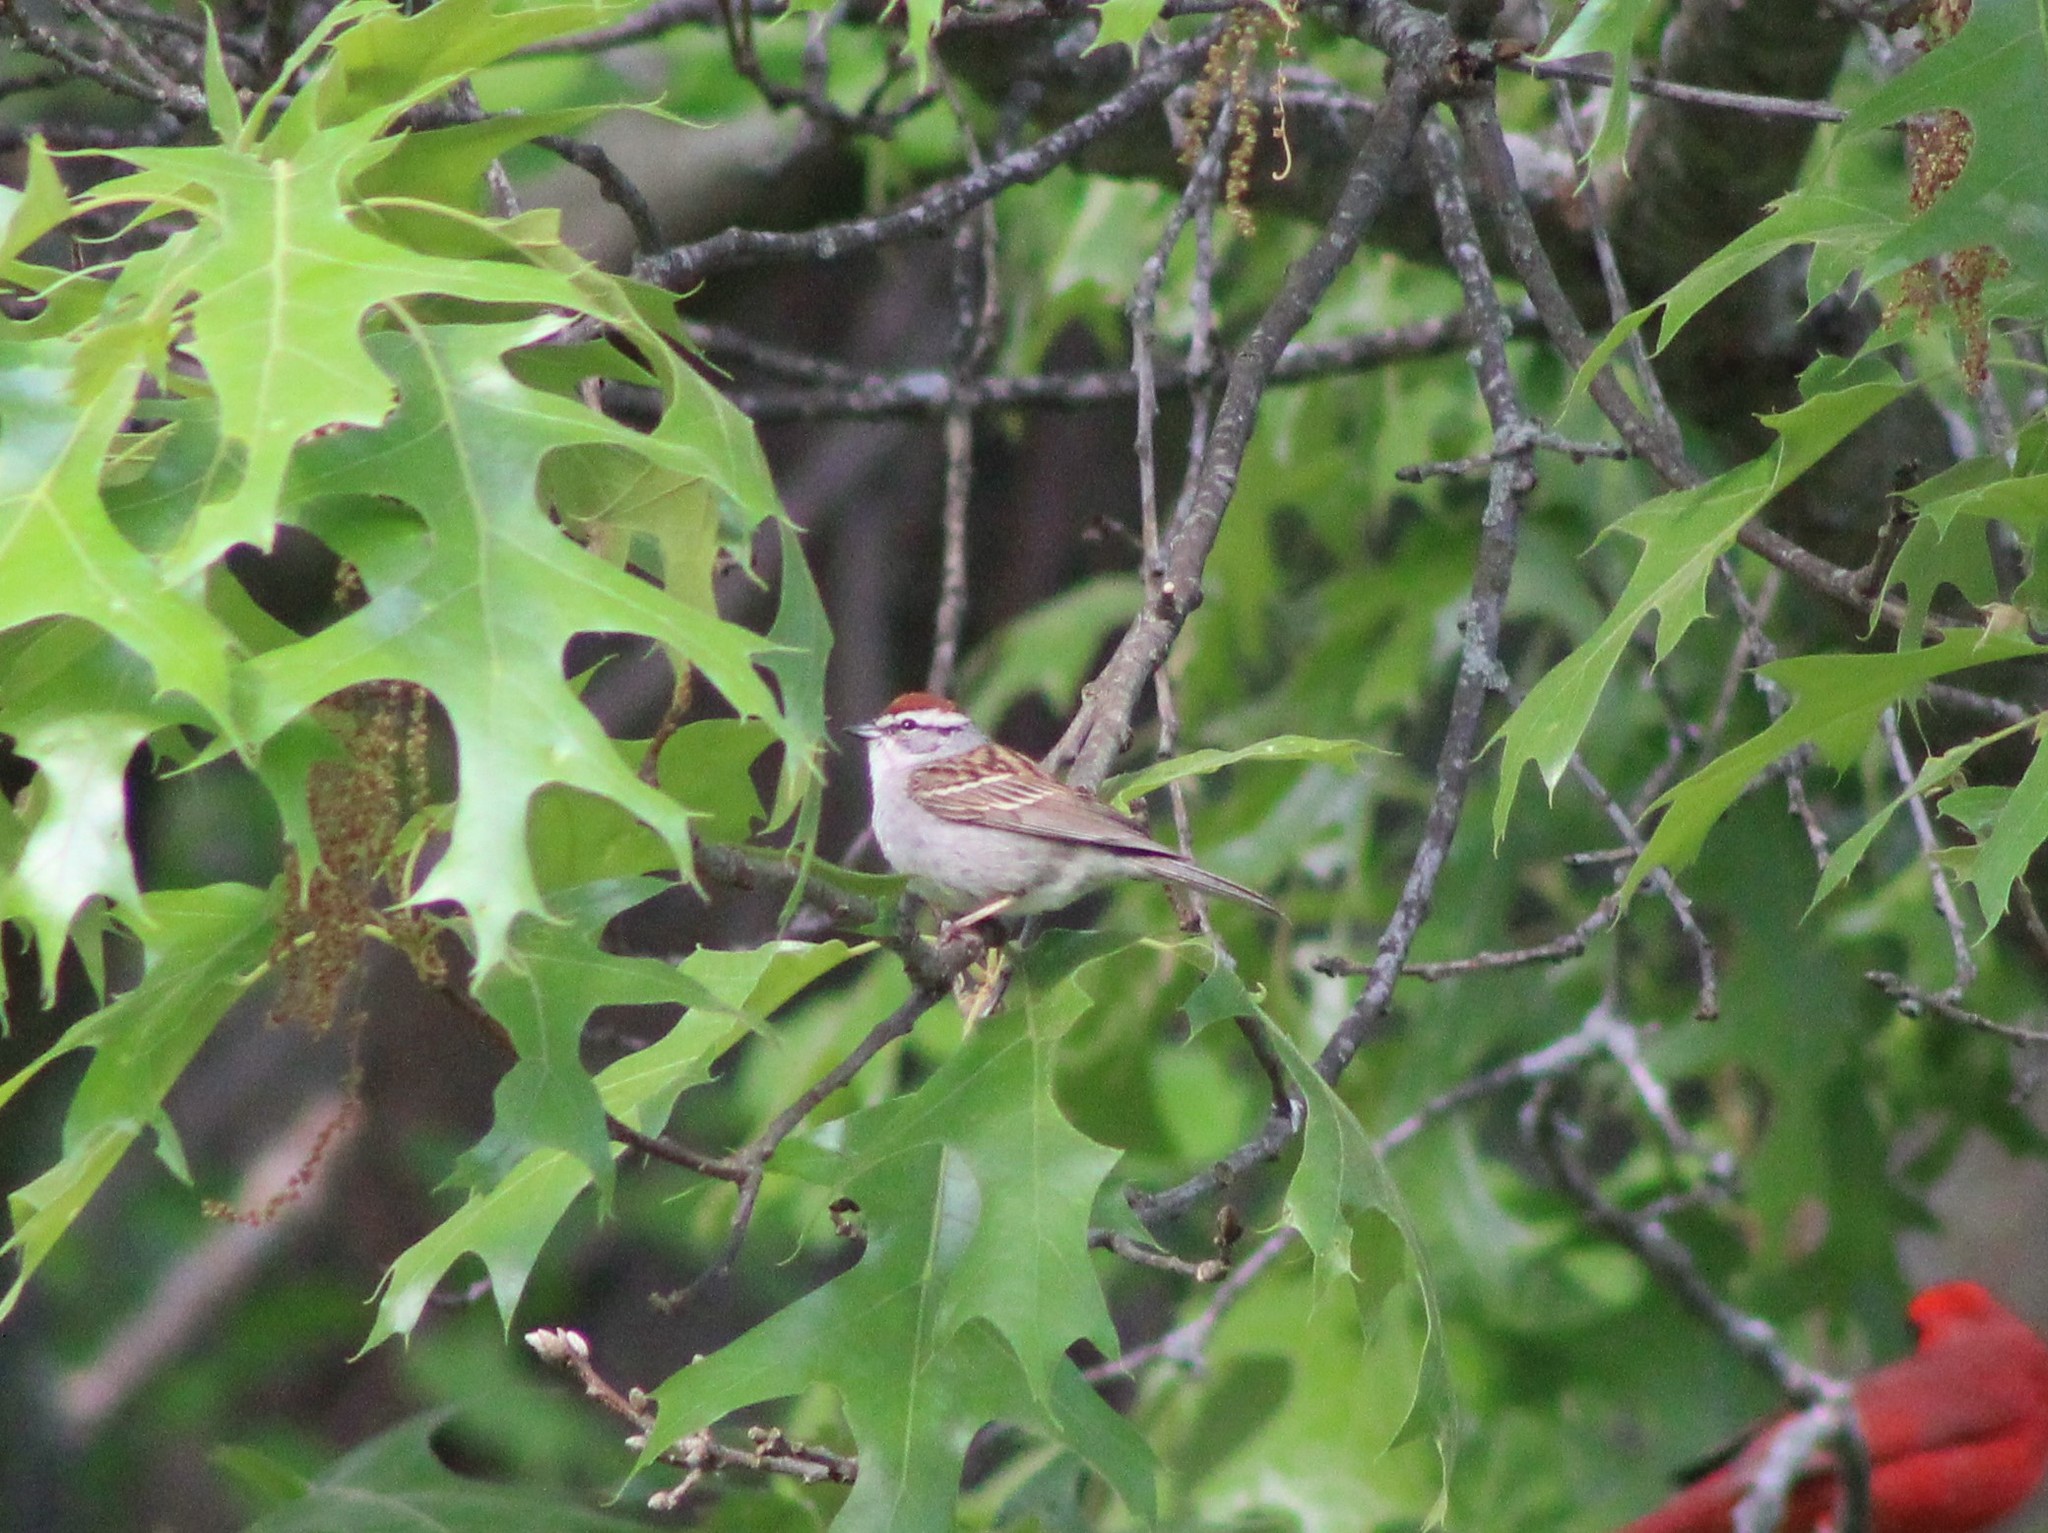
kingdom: Animalia
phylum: Chordata
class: Aves
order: Passeriformes
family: Passerellidae
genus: Spizella
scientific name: Spizella passerina
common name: Chipping sparrow
